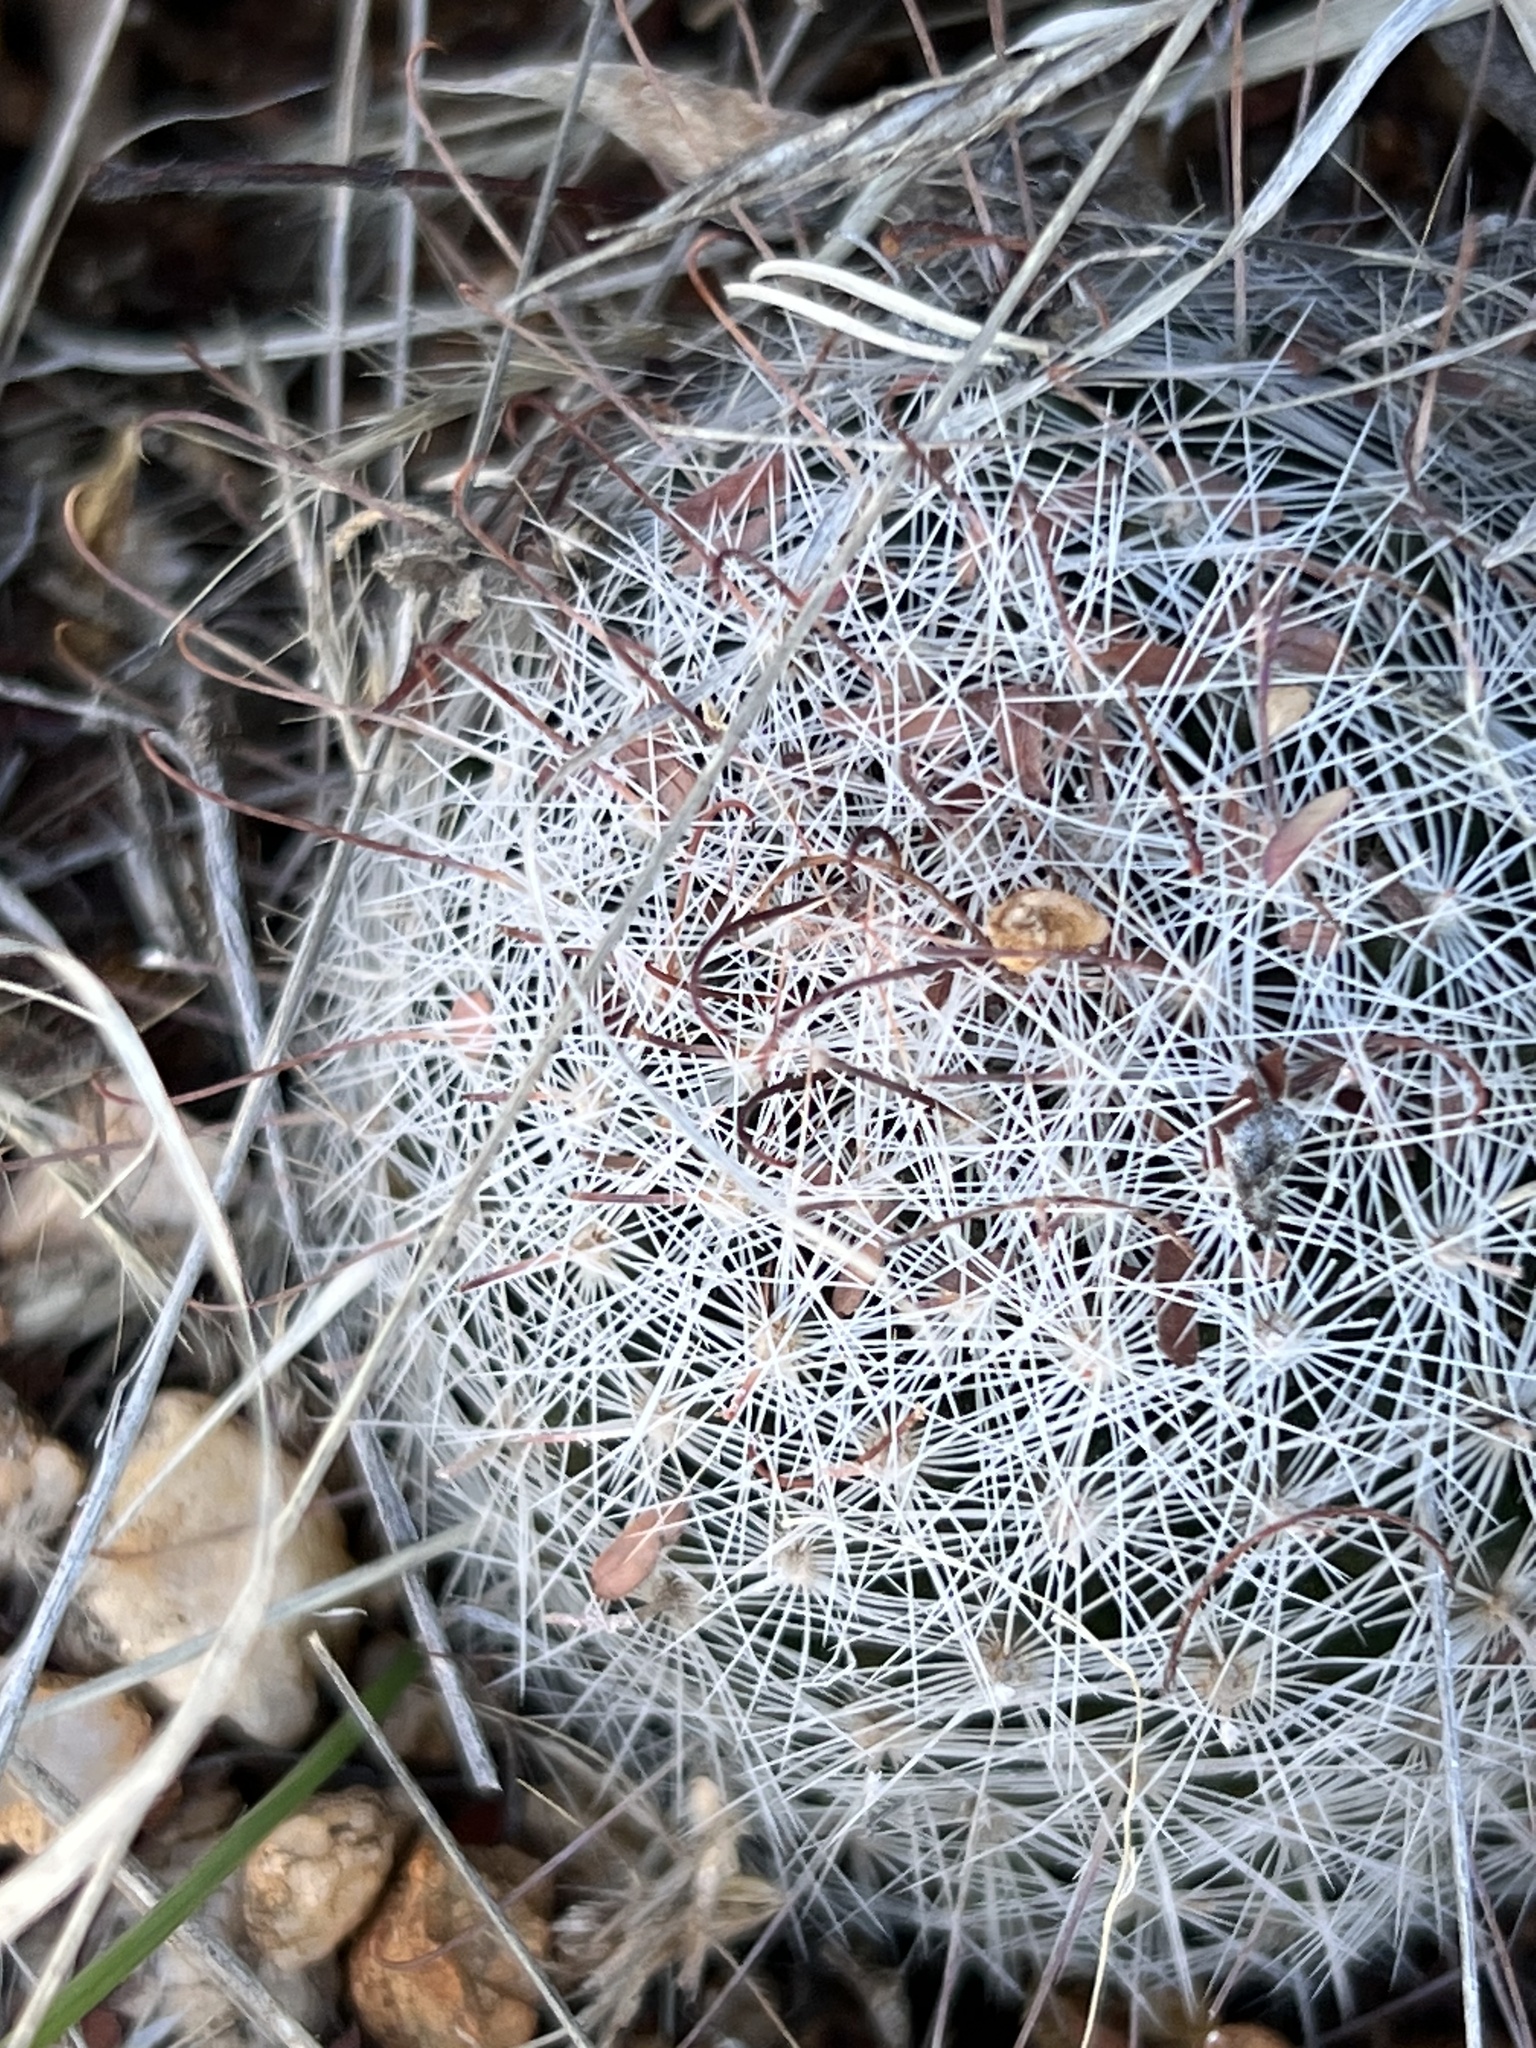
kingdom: Plantae
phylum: Tracheophyta
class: Magnoliopsida
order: Caryophyllales
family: Cactaceae
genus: Cochemiea
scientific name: Cochemiea grahamii
